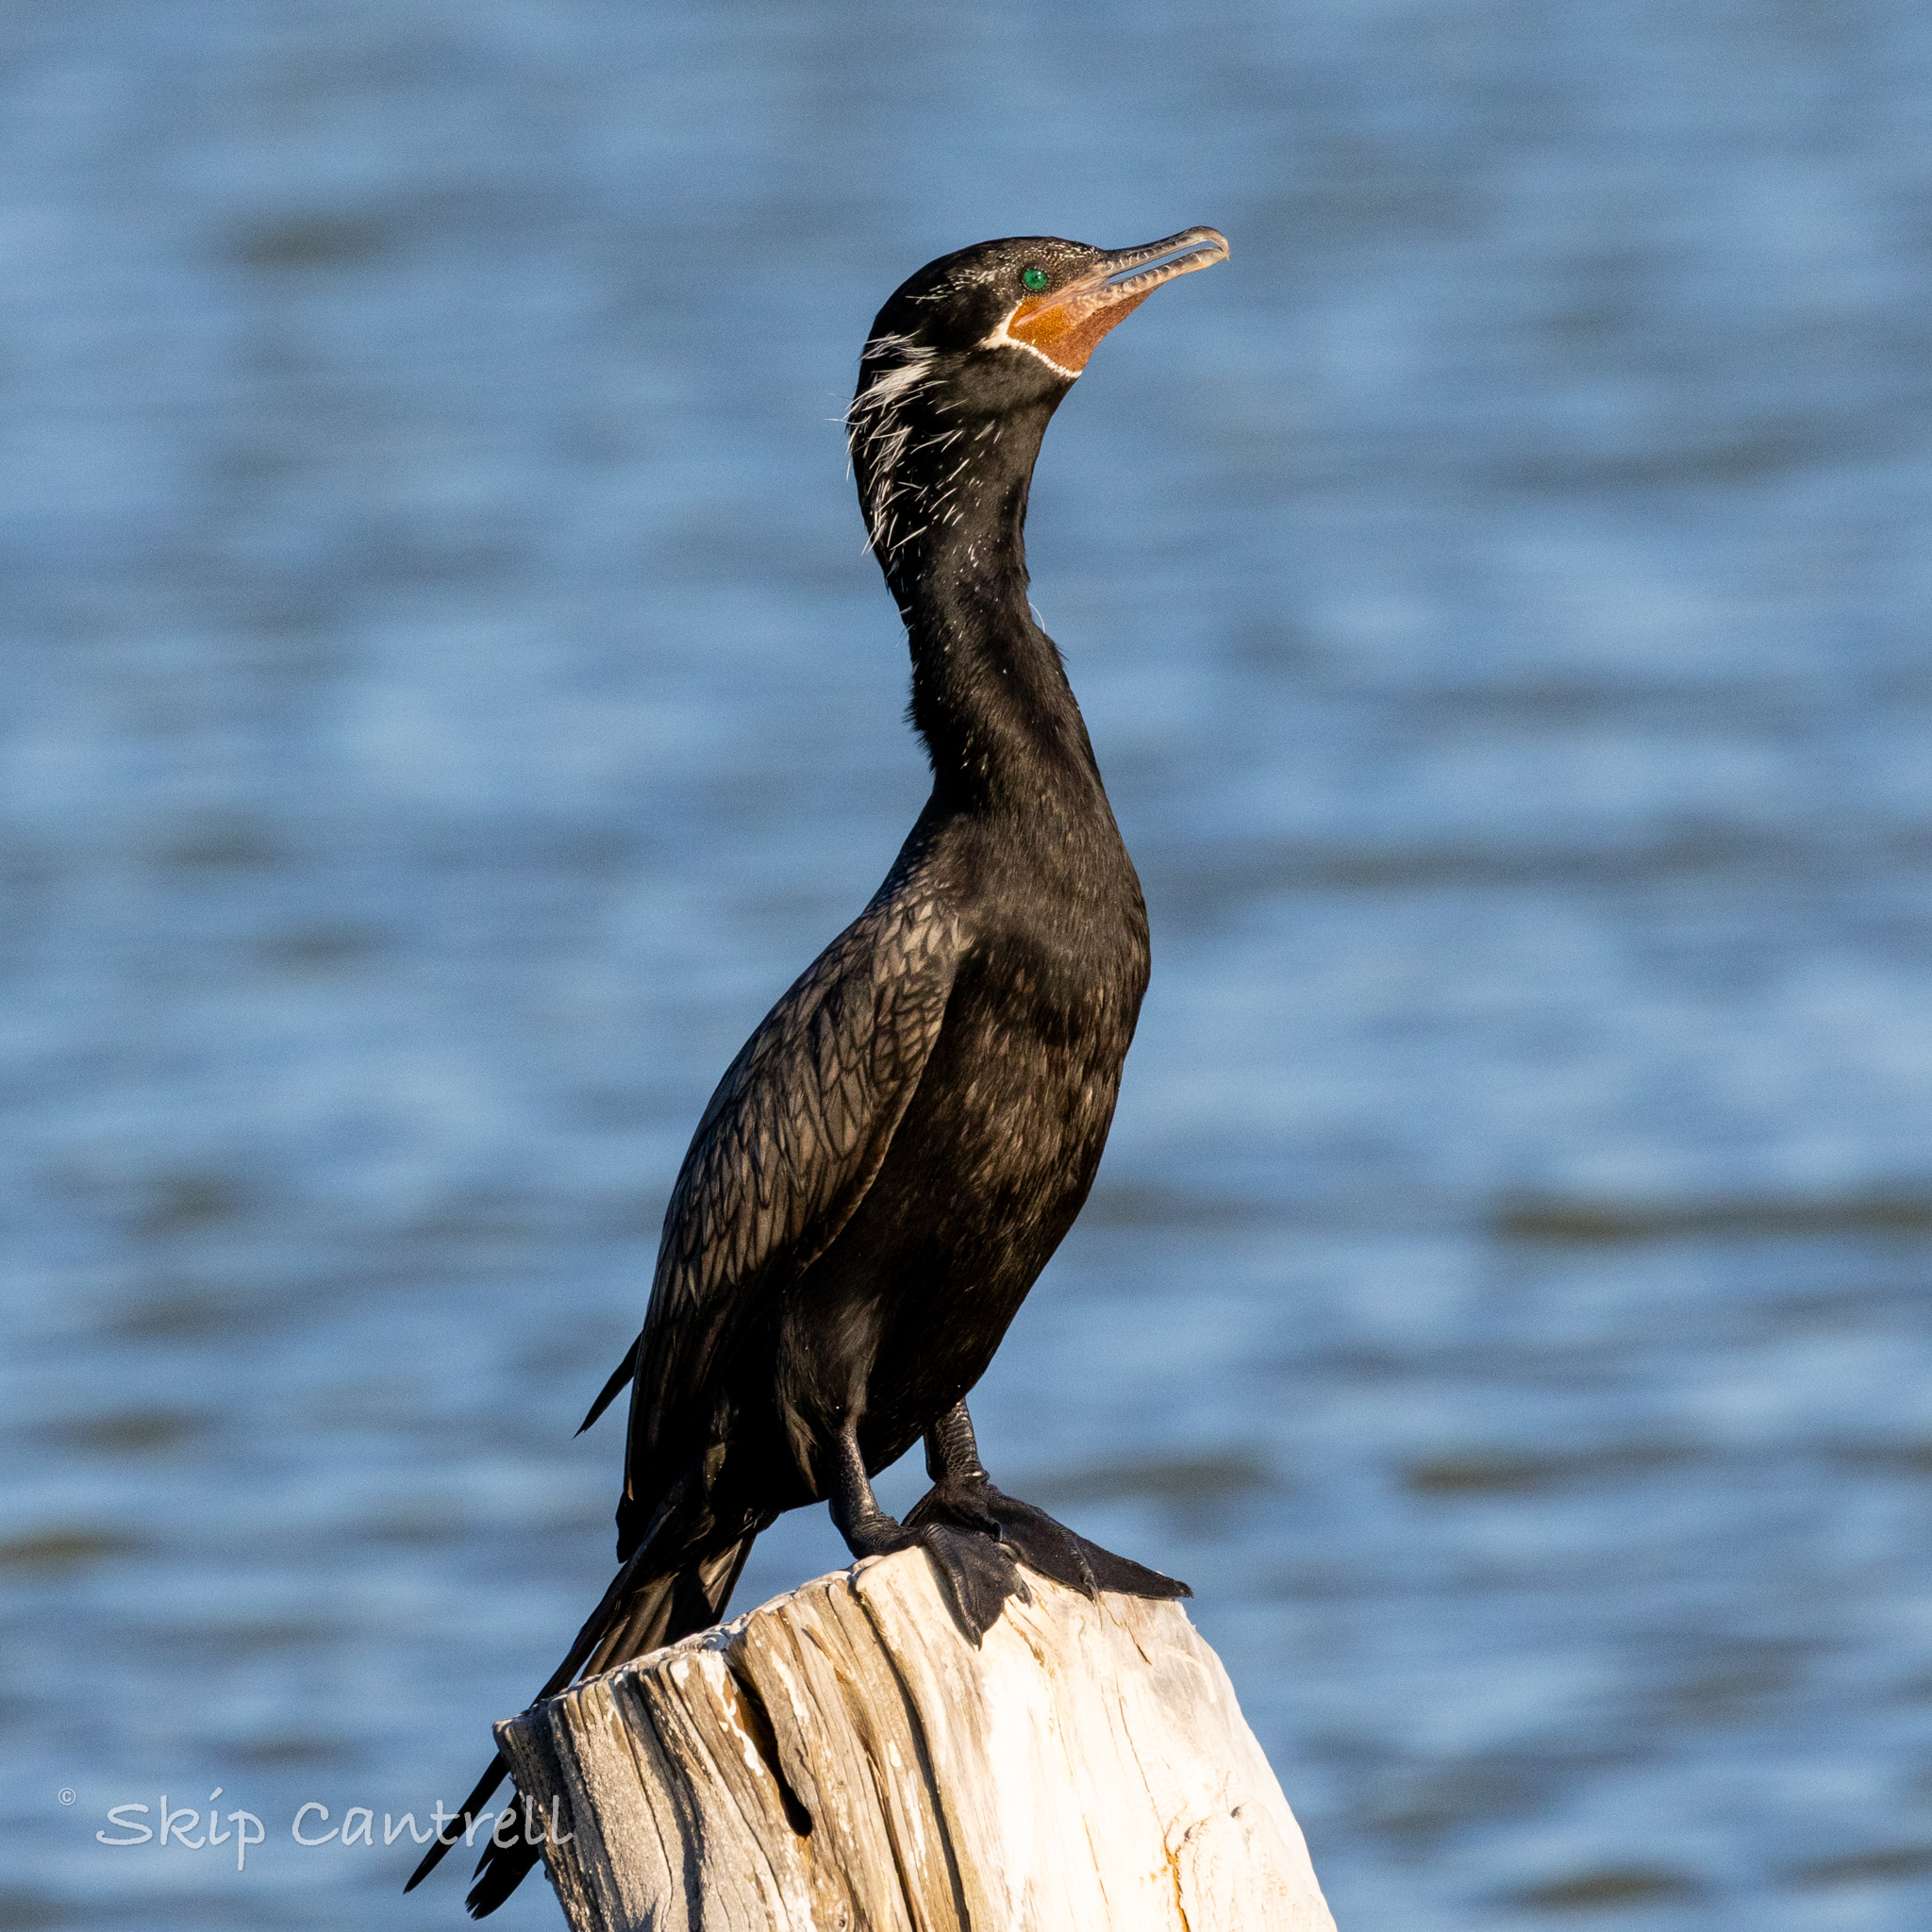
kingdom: Animalia
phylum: Chordata
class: Aves
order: Suliformes
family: Phalacrocoracidae
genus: Phalacrocorax
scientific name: Phalacrocorax brasilianus
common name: Neotropic cormorant
